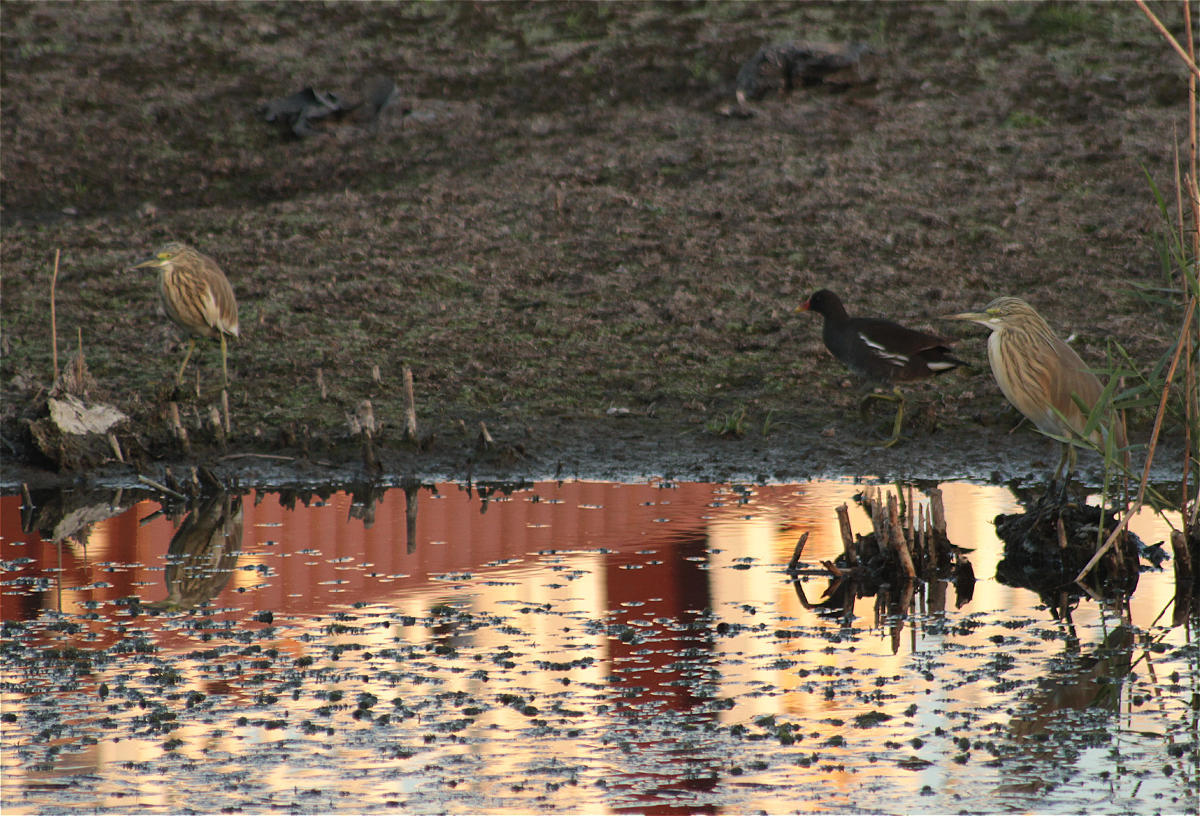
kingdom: Animalia
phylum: Chordata
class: Aves
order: Pelecaniformes
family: Ardeidae
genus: Ardeola
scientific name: Ardeola ralloides
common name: Squacco heron
